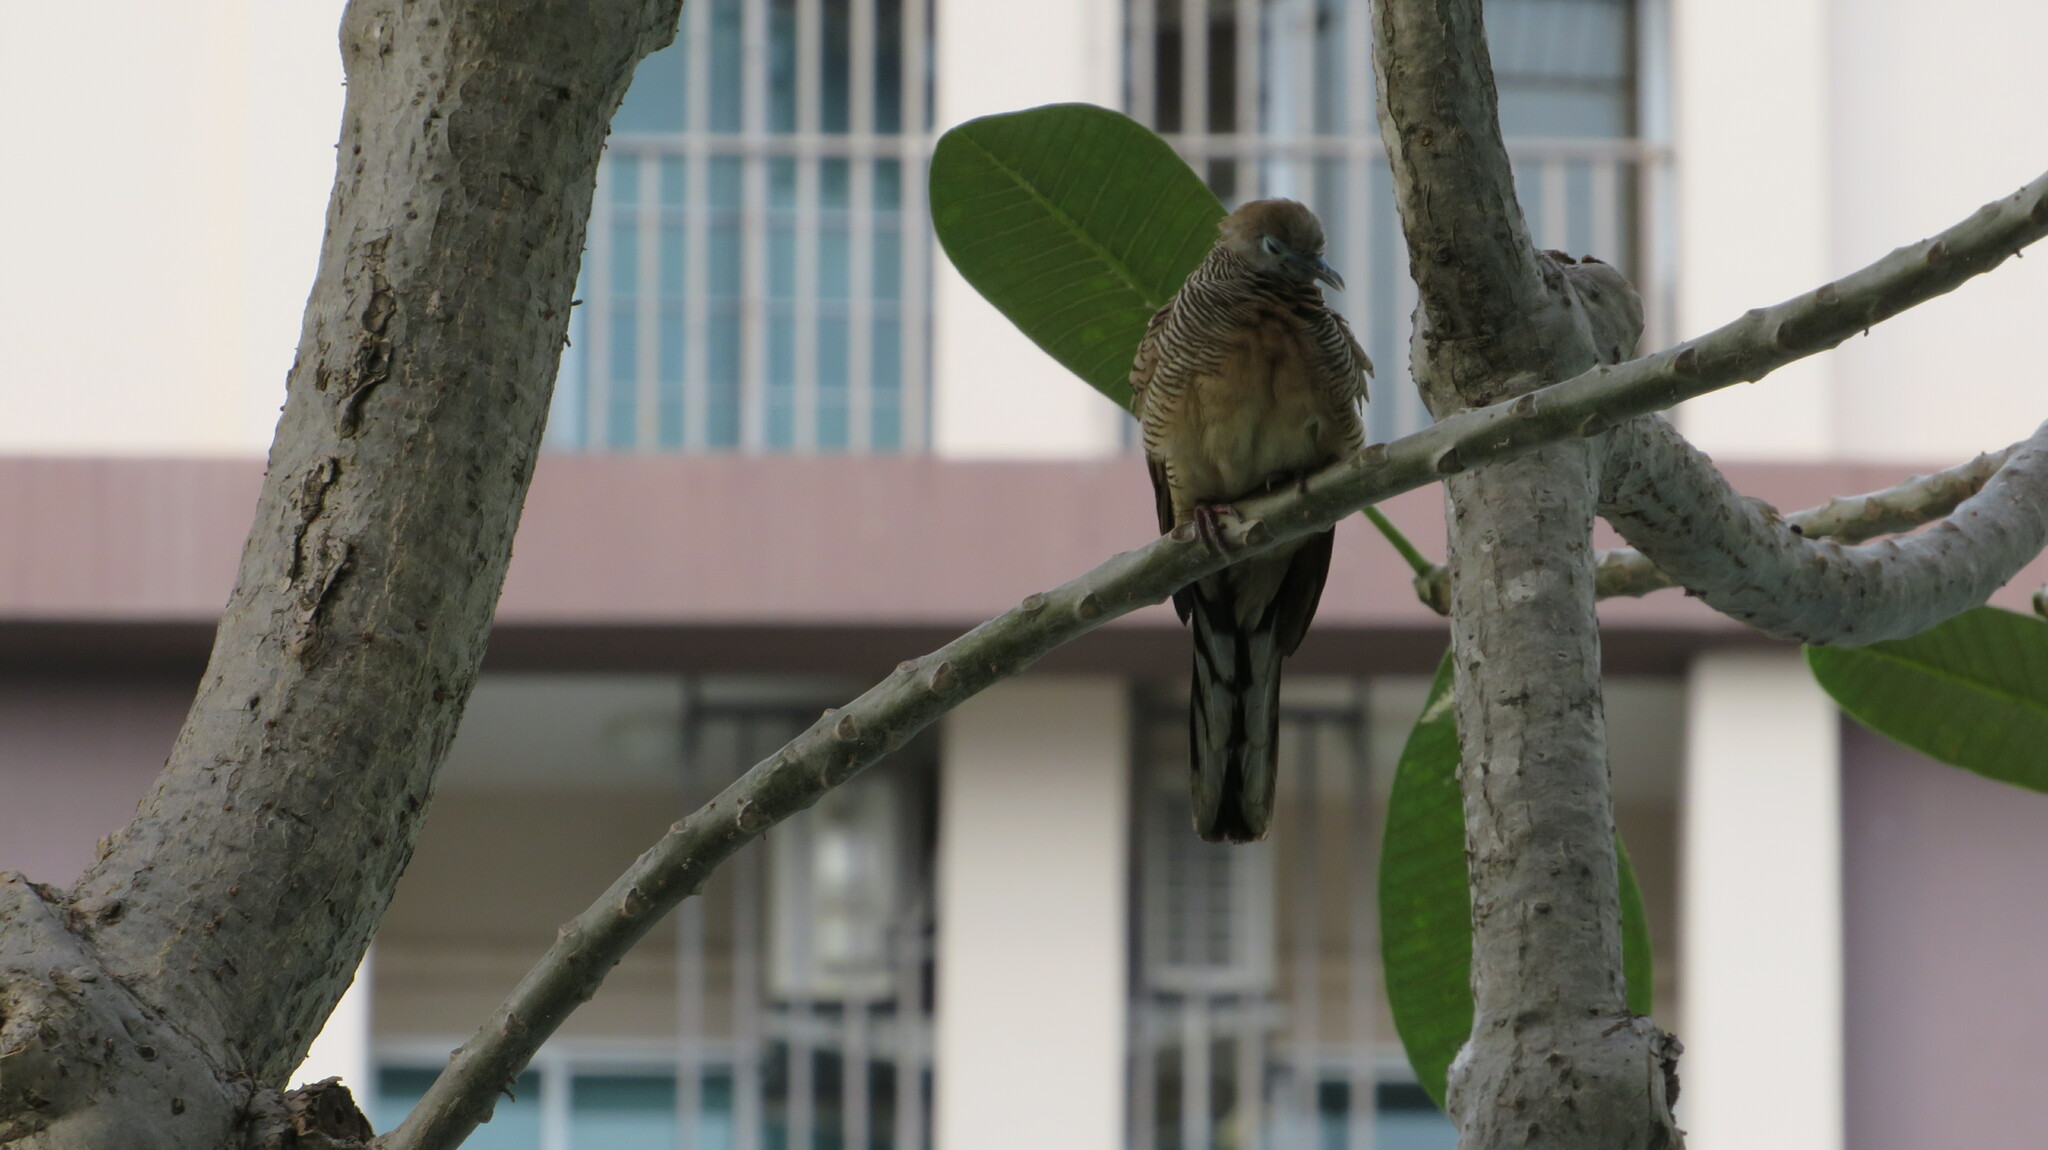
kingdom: Animalia
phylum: Chordata
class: Aves
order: Columbiformes
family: Columbidae
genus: Geopelia
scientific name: Geopelia striata
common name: Zebra dove
